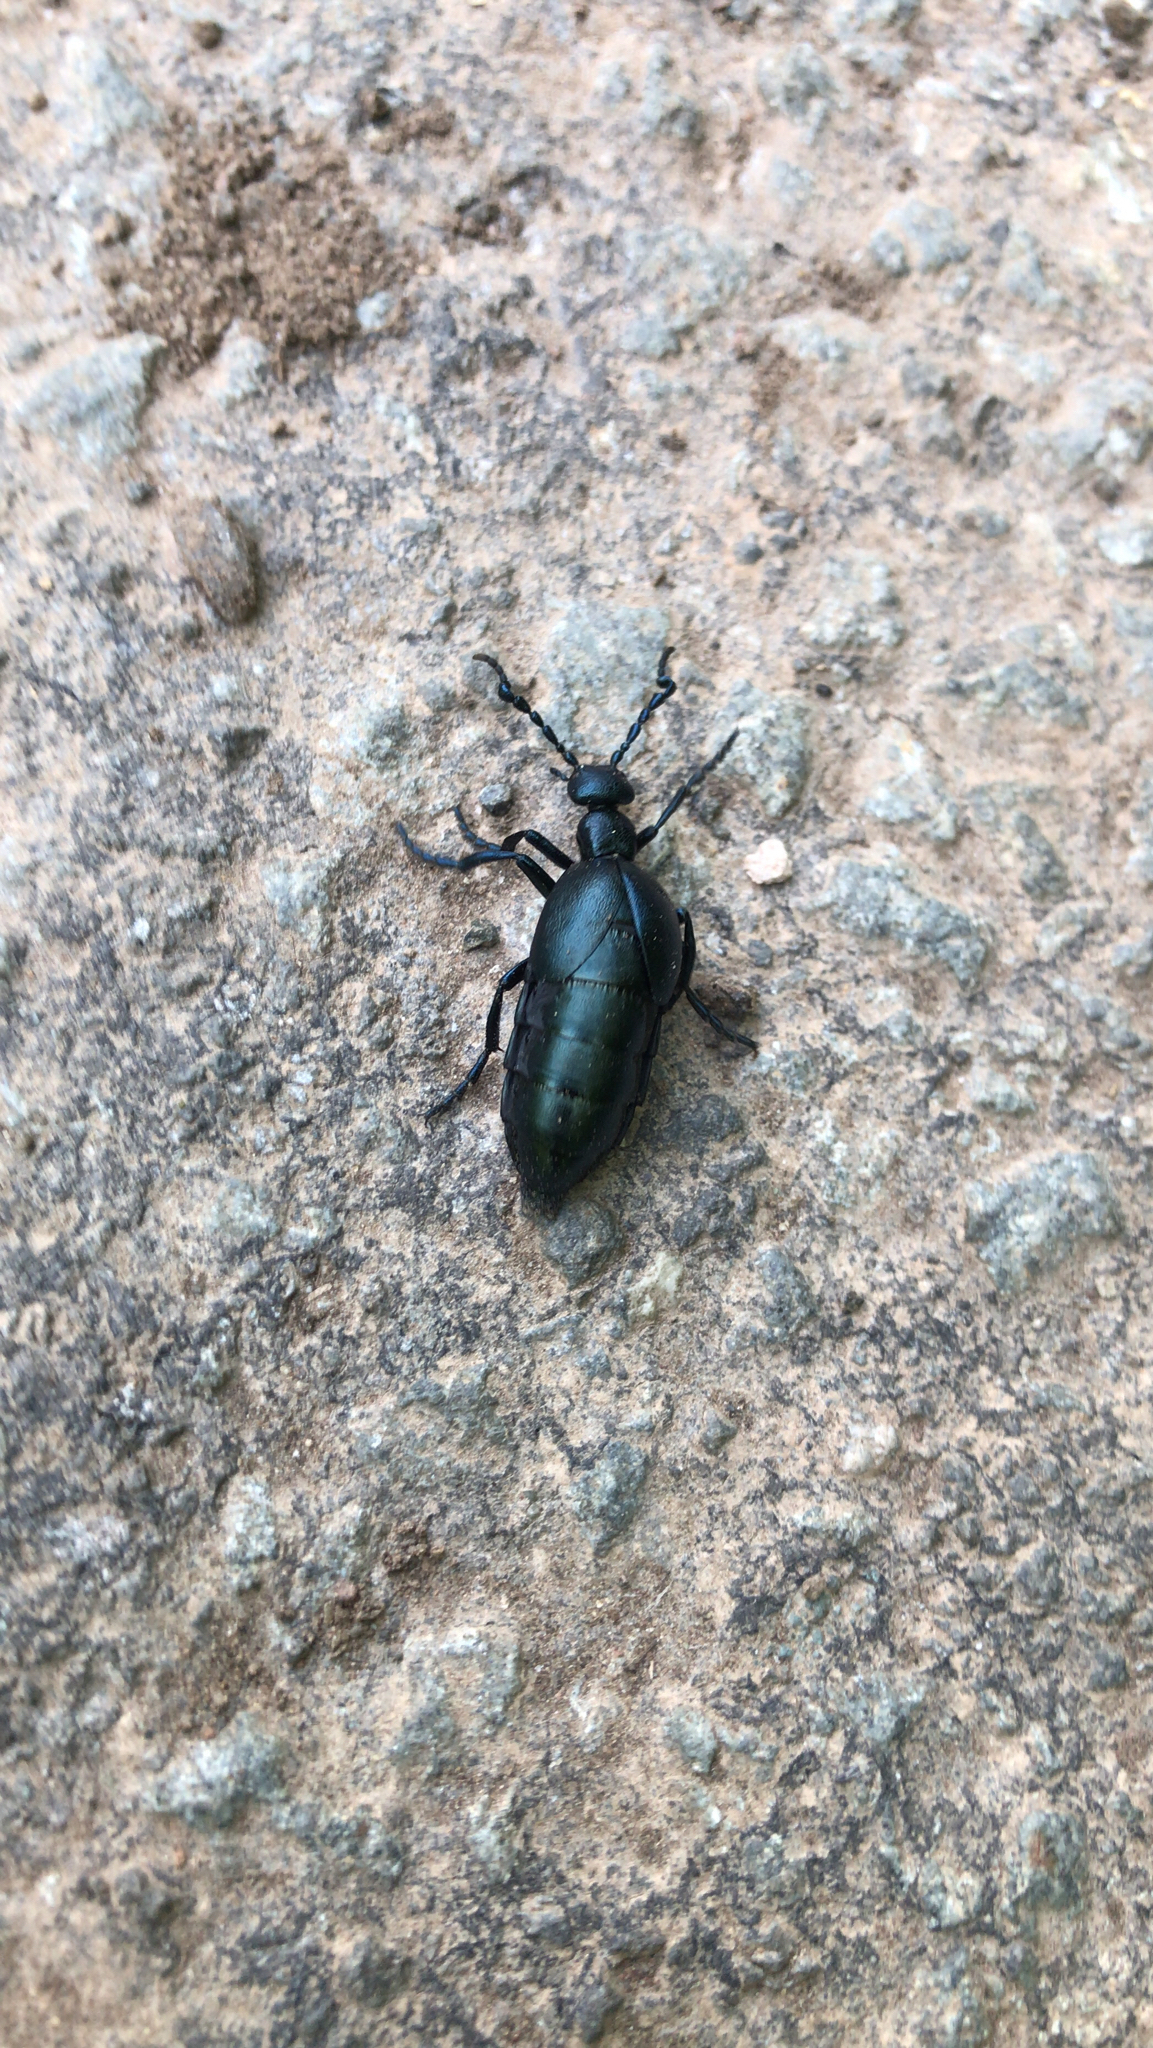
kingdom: Animalia
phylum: Arthropoda
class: Insecta
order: Coleoptera
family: Meloidae
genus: Meloe
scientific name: Meloe violaceus
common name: Violet oil-beetle
